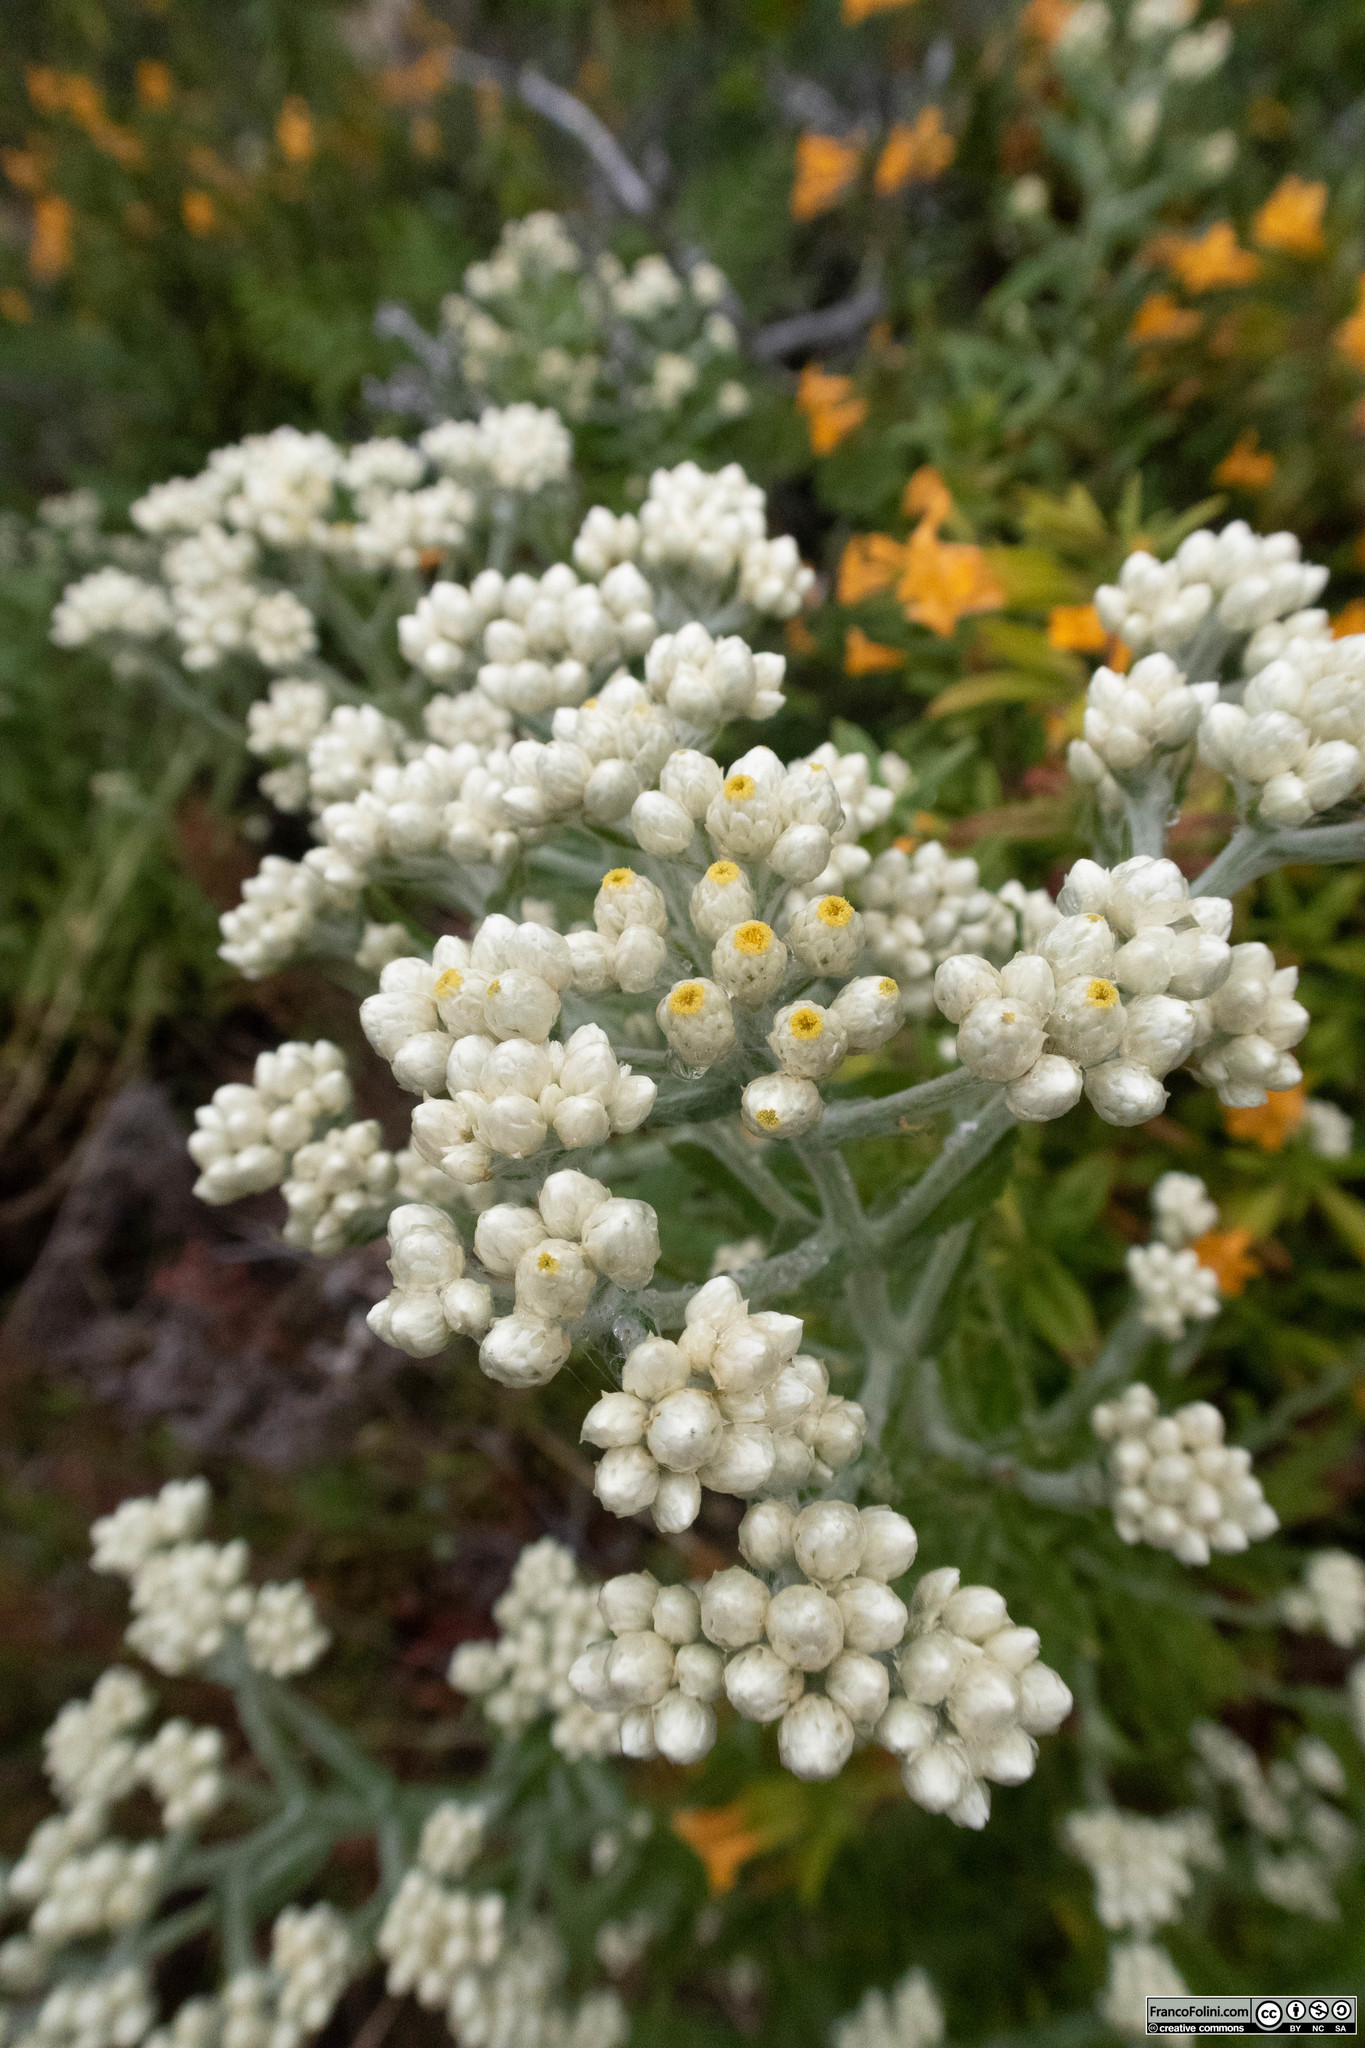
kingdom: Plantae
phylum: Tracheophyta
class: Magnoliopsida
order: Asterales
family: Asteraceae
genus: Pseudognaphalium
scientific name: Pseudognaphalium californicum
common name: California rabbit-tobacco
